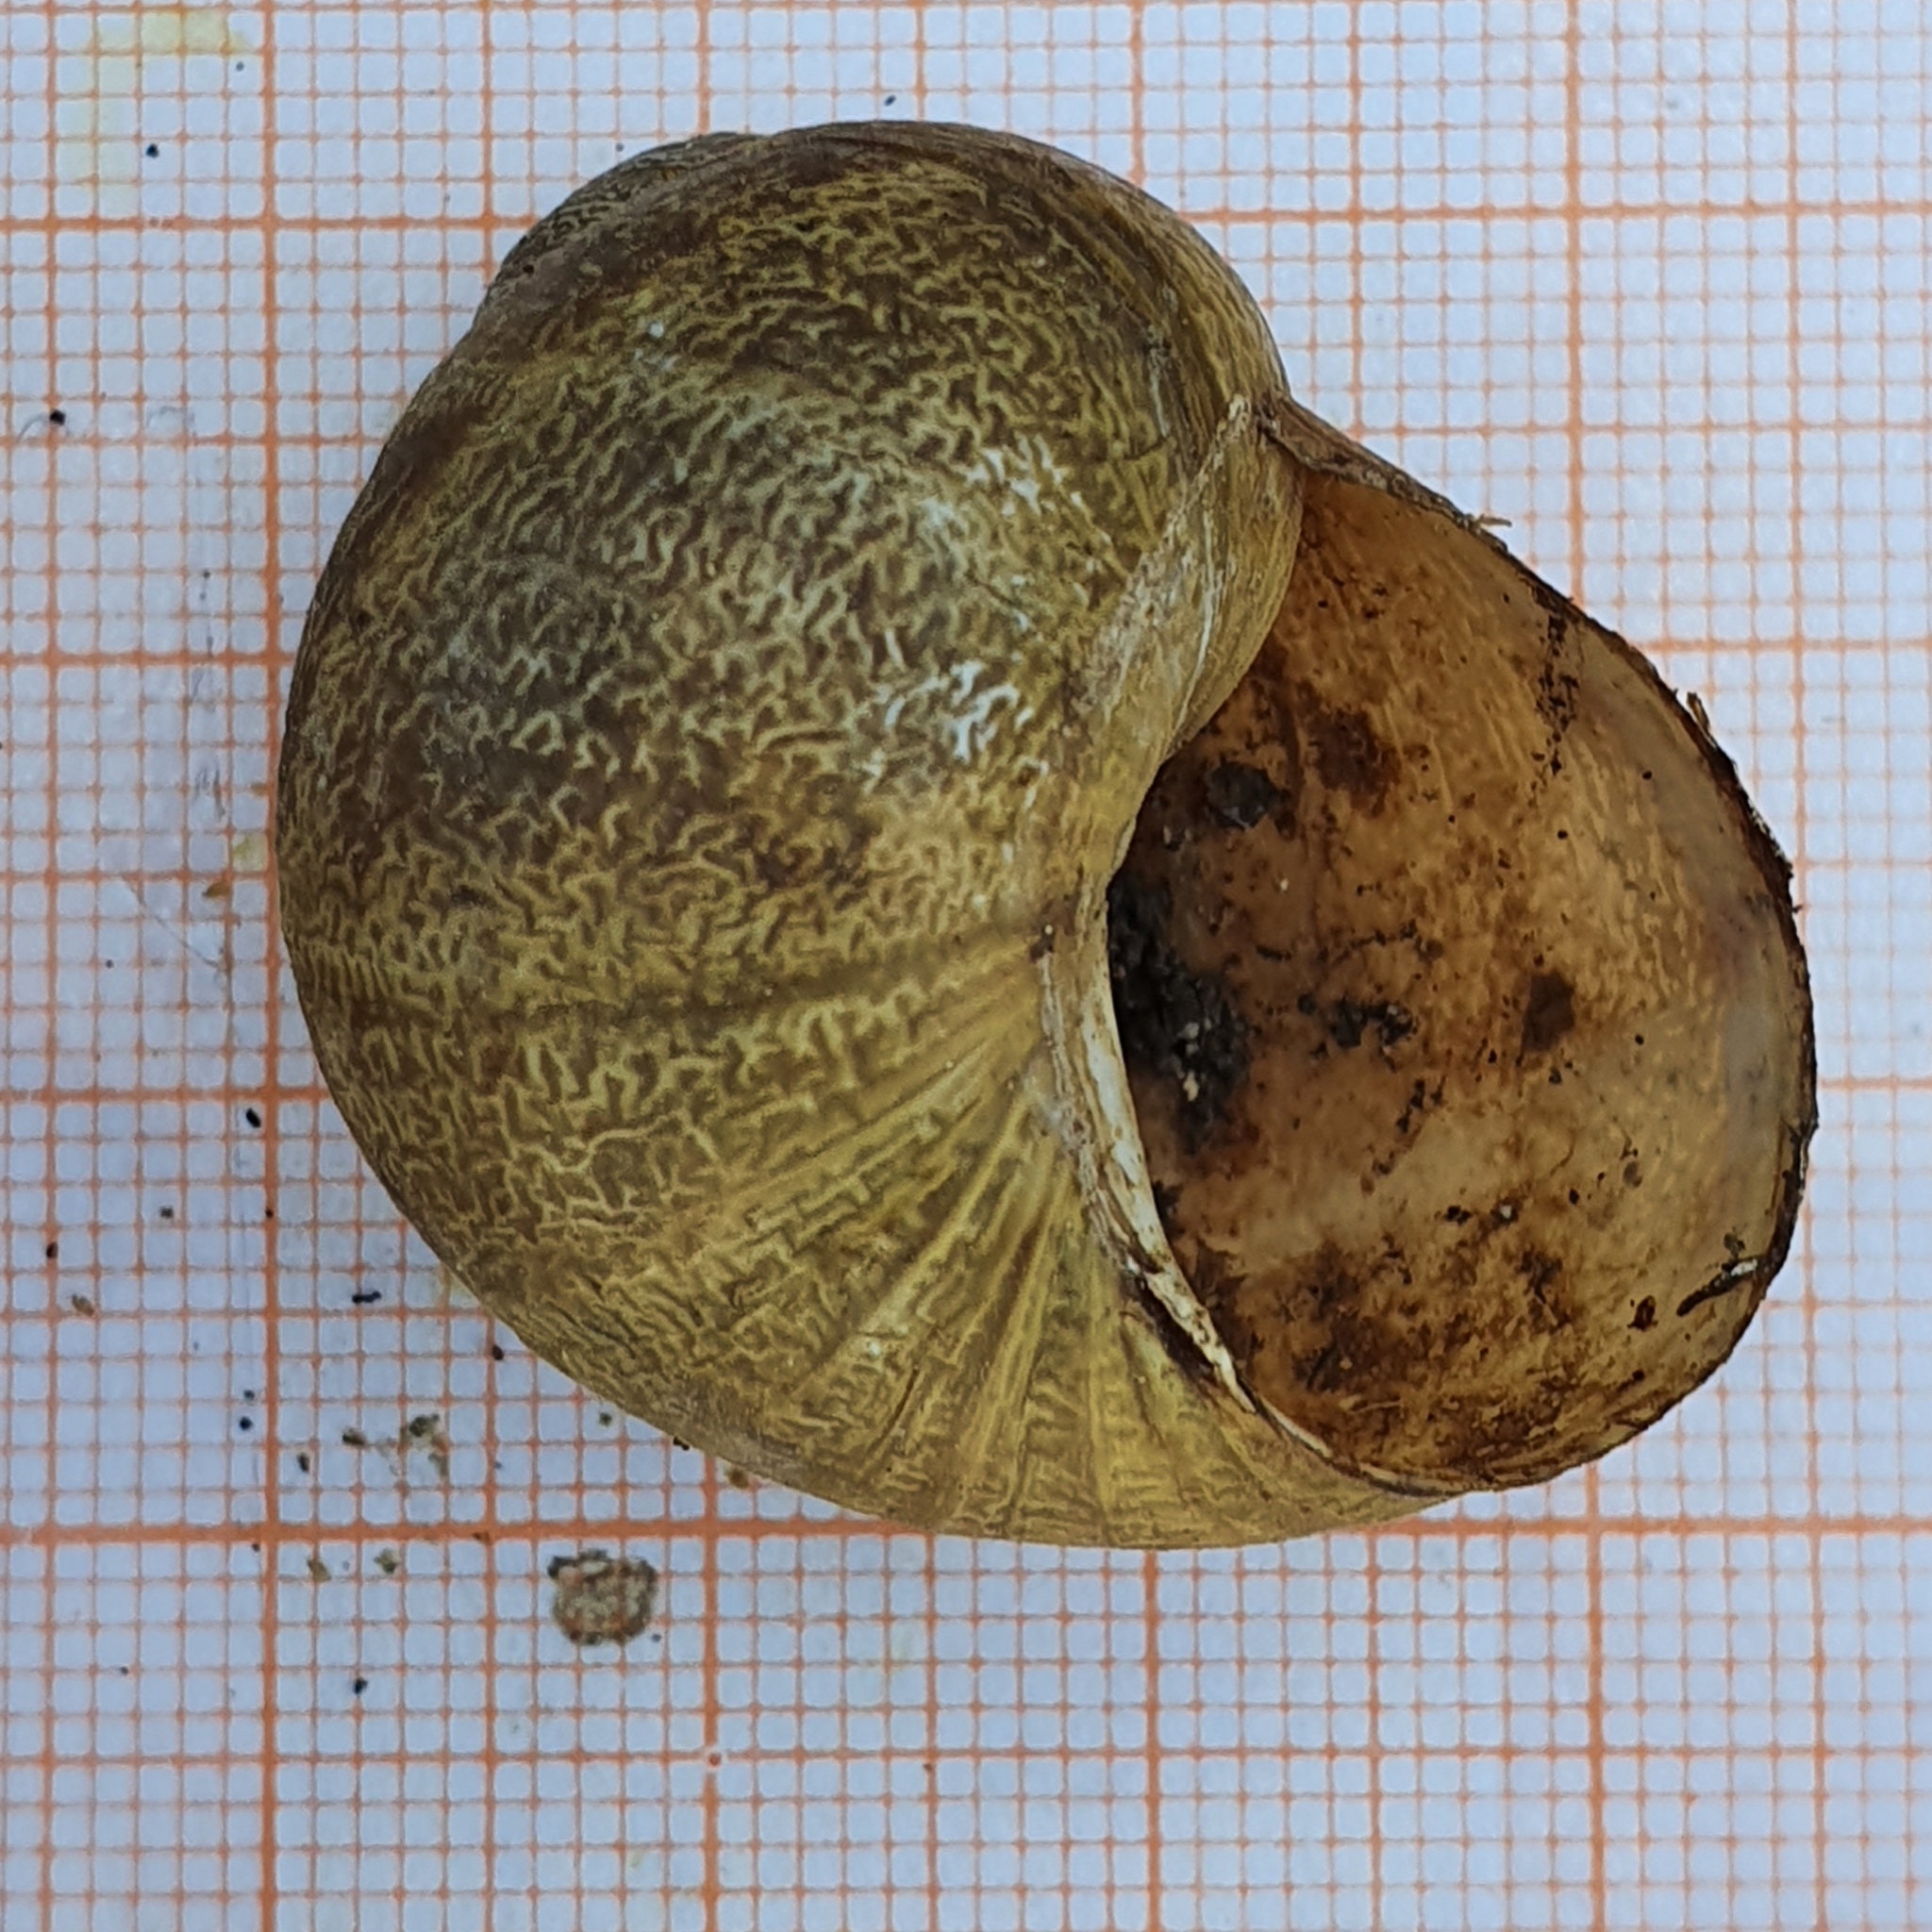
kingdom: Animalia
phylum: Mollusca
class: Gastropoda
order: Stylommatophora
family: Helicidae
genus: Cornu
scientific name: Cornu aspersum
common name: Brown garden snail
